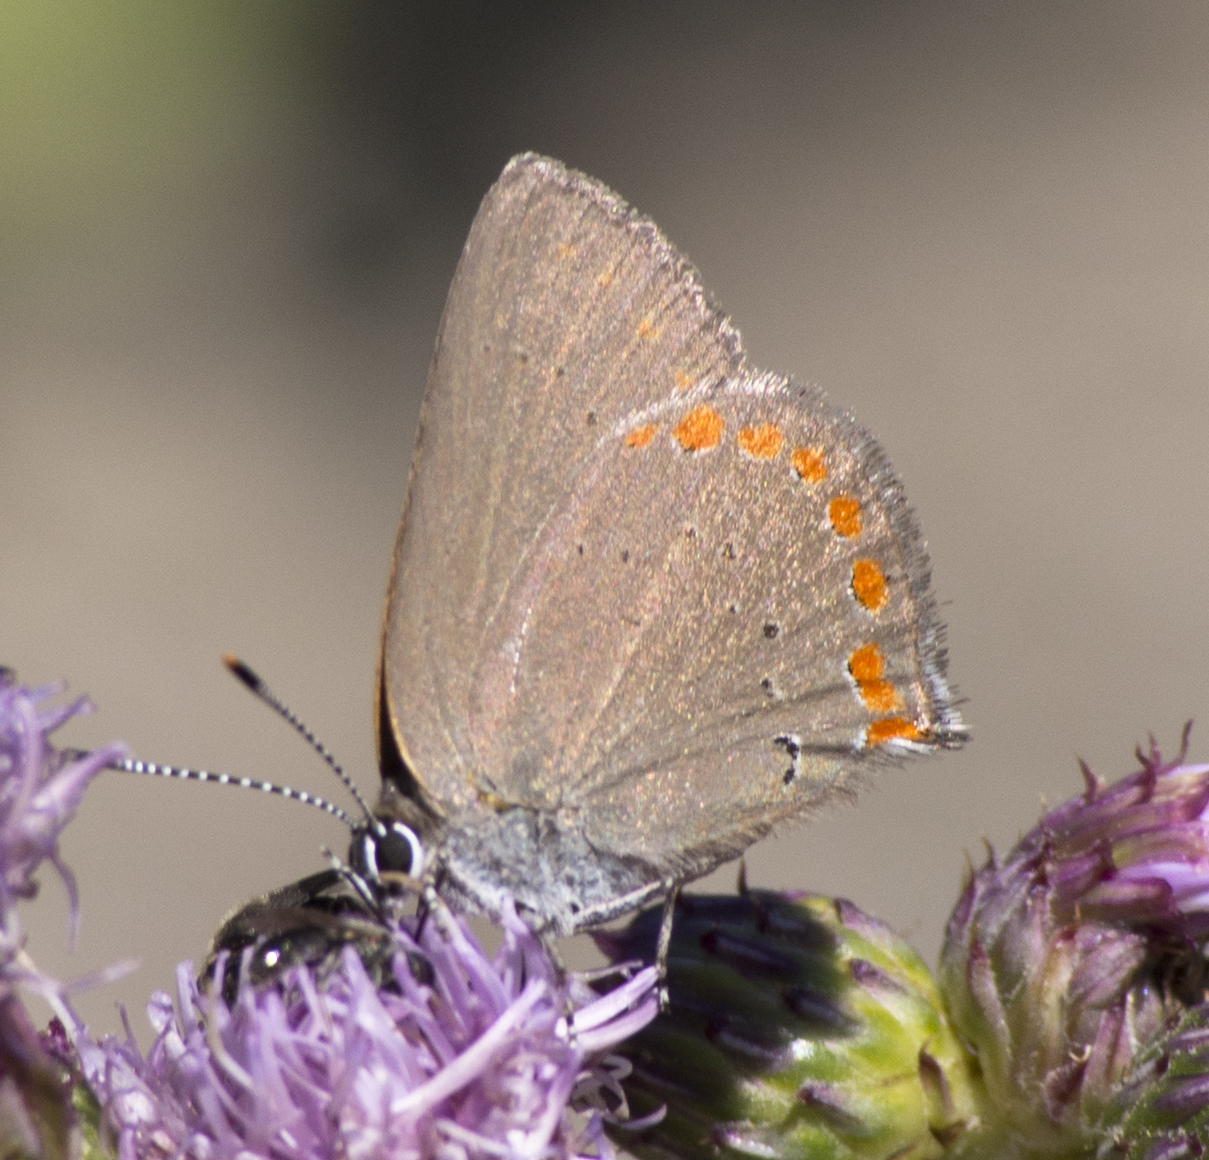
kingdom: Animalia
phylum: Arthropoda
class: Insecta
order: Lepidoptera
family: Lycaenidae
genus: Harkenclenus
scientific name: Harkenclenus titus
